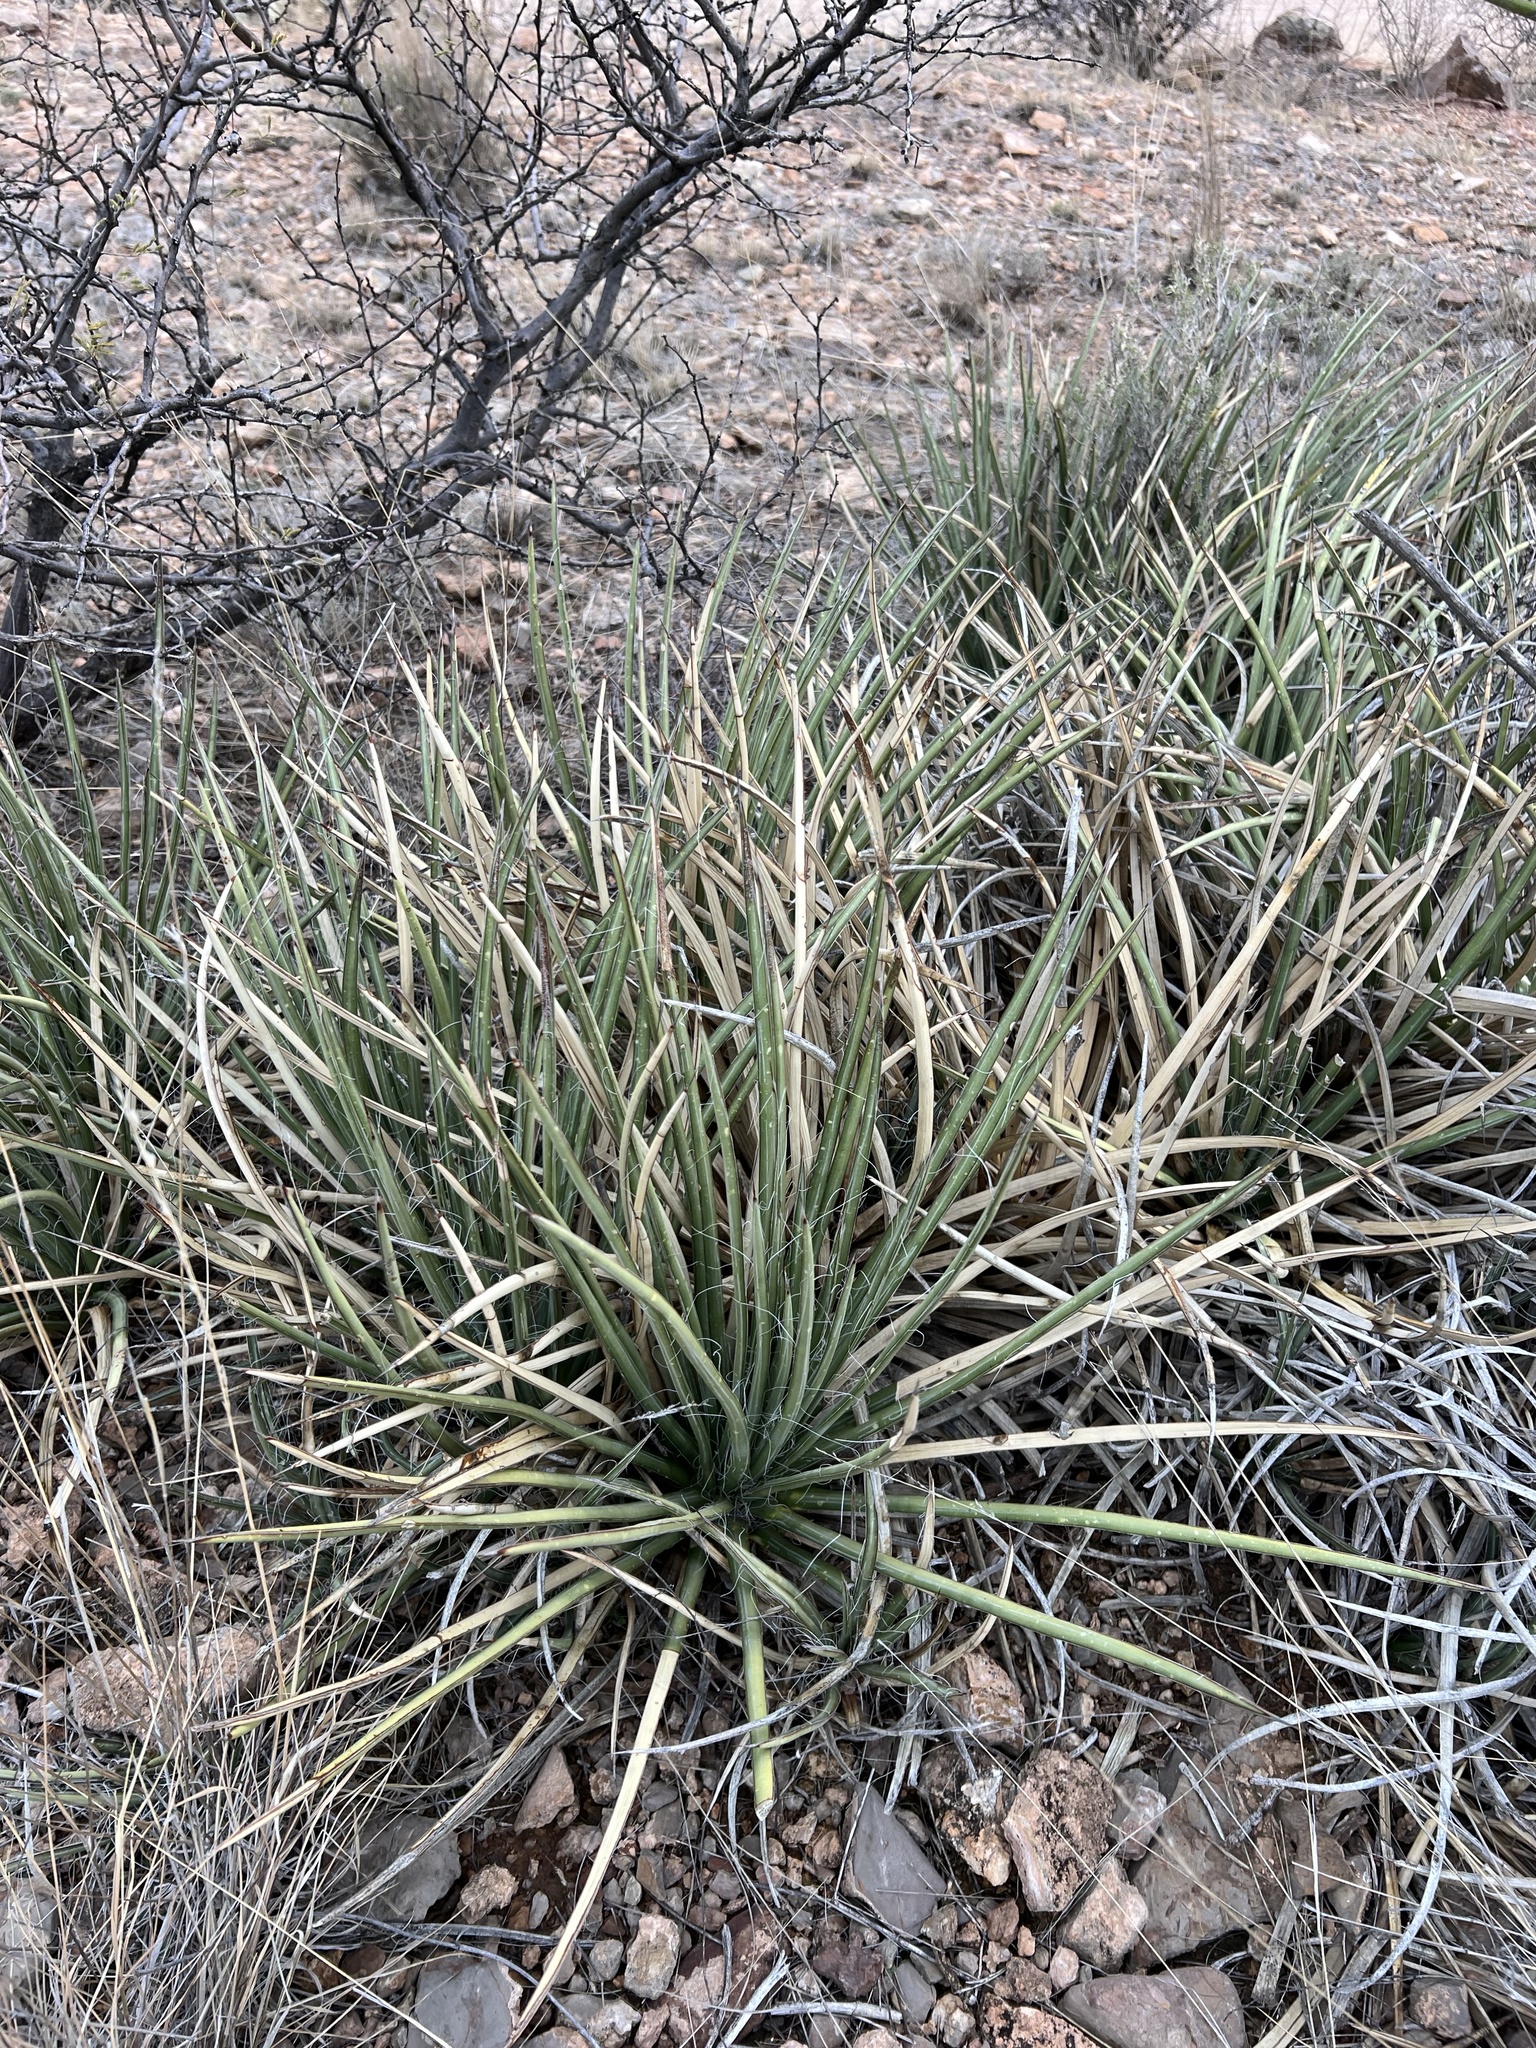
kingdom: Plantae
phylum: Tracheophyta
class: Liliopsida
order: Asparagales
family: Asparagaceae
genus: Agave
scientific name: Agave schottii
